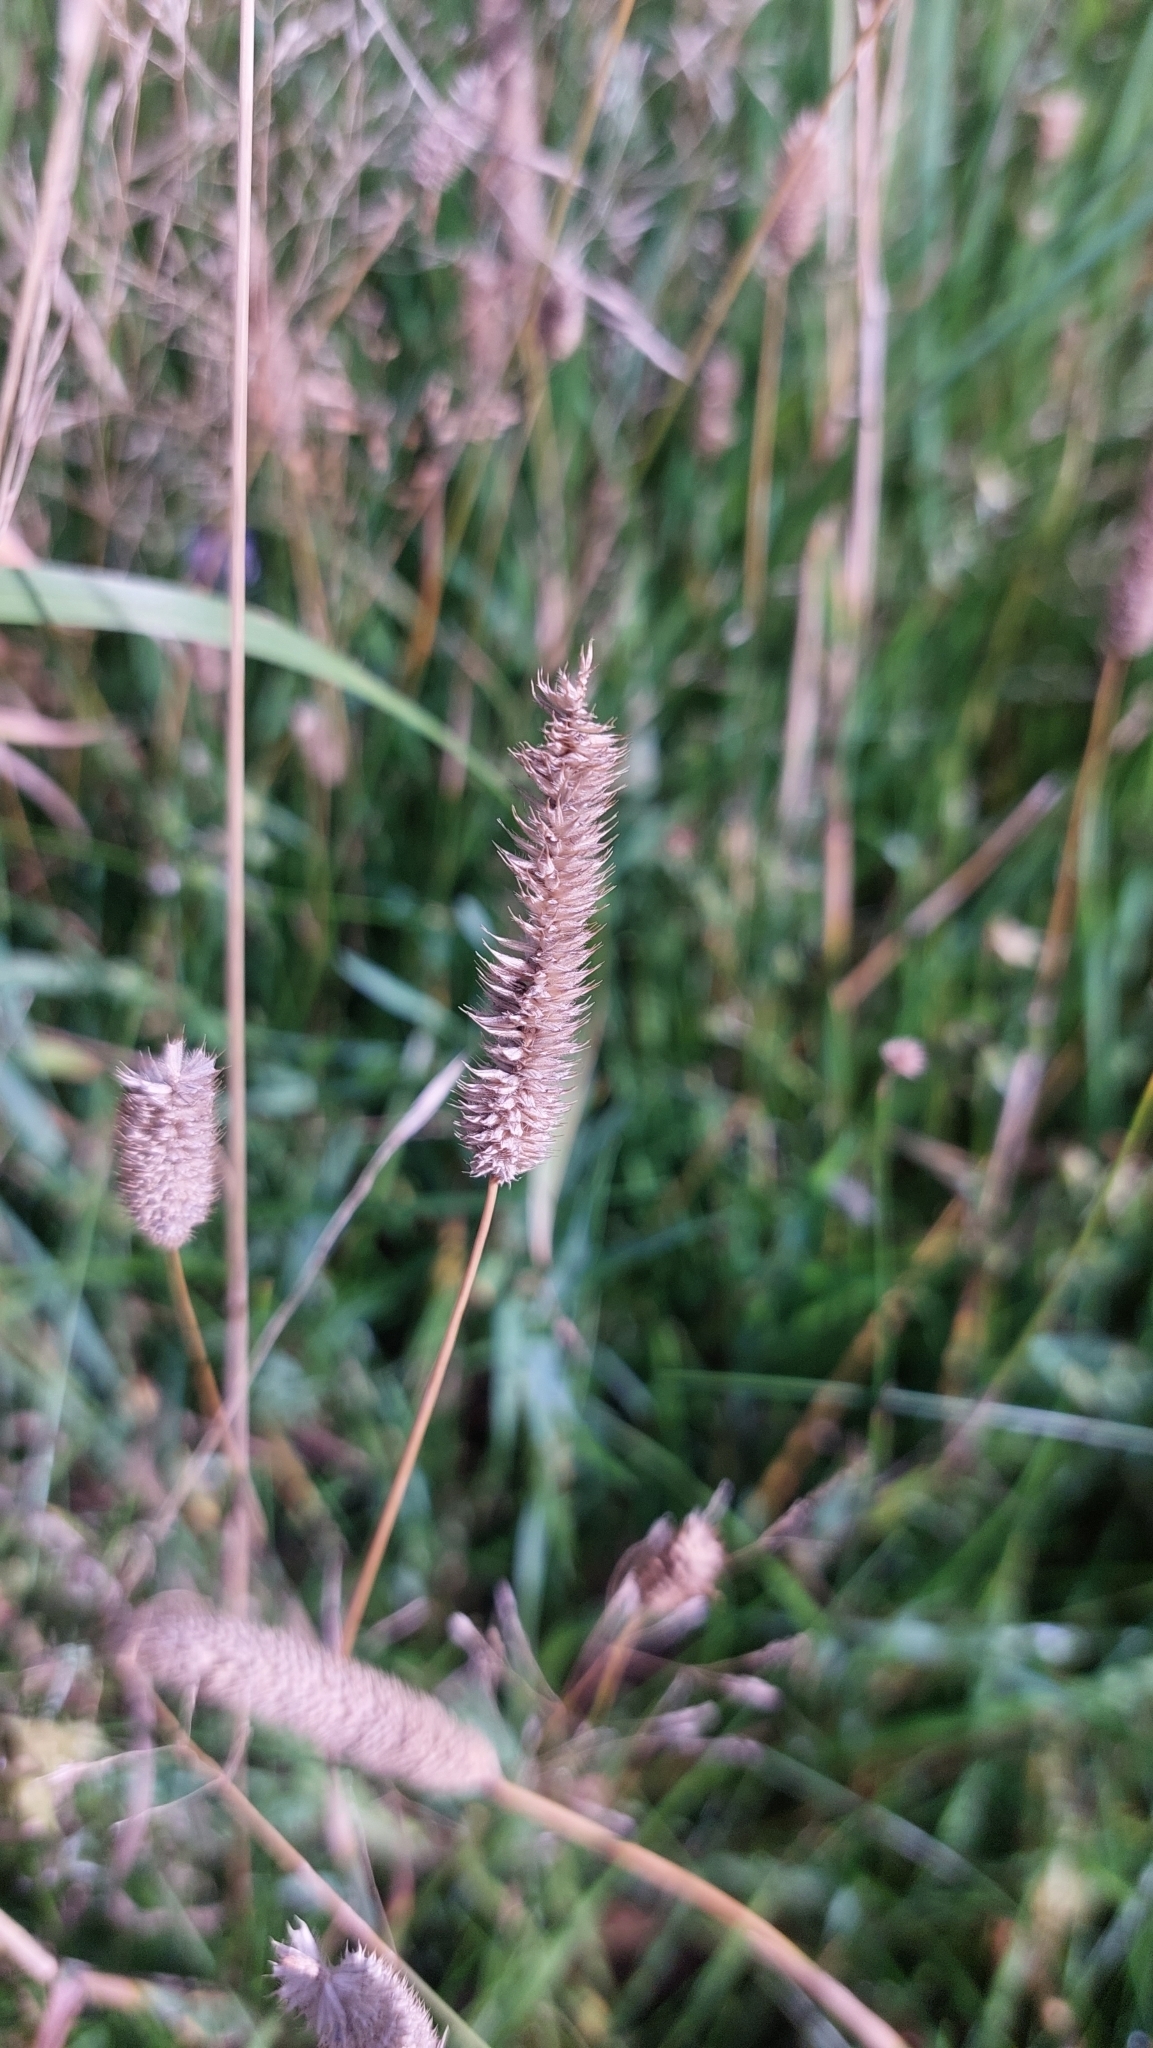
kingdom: Plantae
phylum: Tracheophyta
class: Liliopsida
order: Poales
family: Poaceae
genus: Phleum
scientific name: Phleum pratense
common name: Timothy grass
